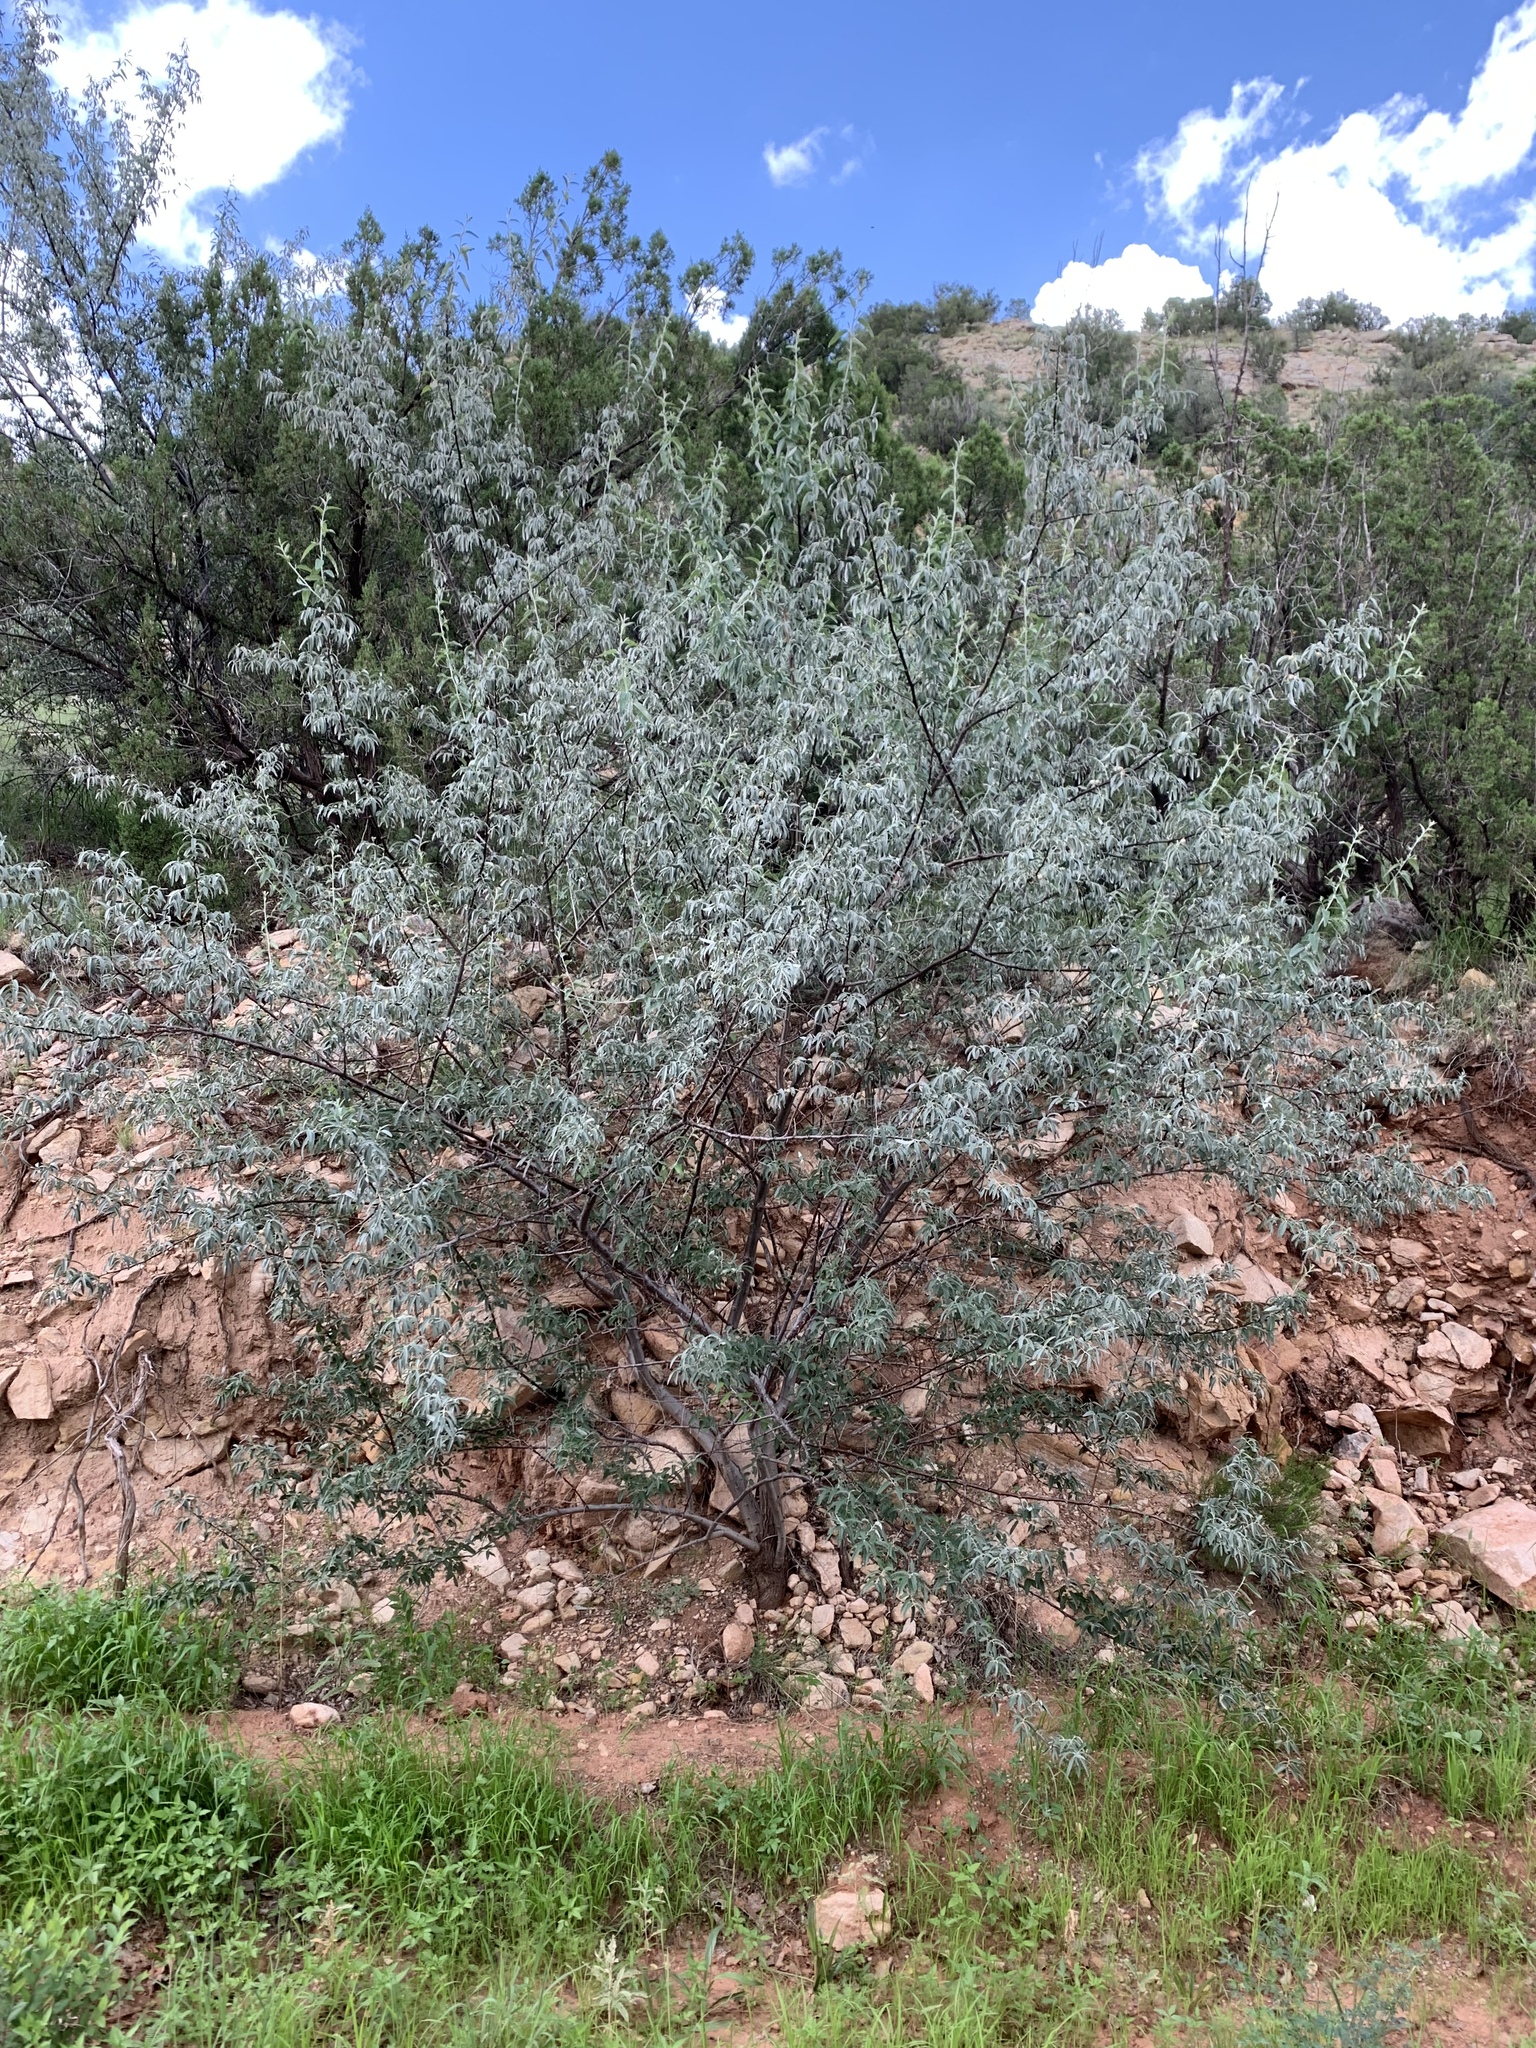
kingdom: Plantae
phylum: Tracheophyta
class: Magnoliopsida
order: Rosales
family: Elaeagnaceae
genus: Elaeagnus
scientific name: Elaeagnus angustifolia
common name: Russian olive
